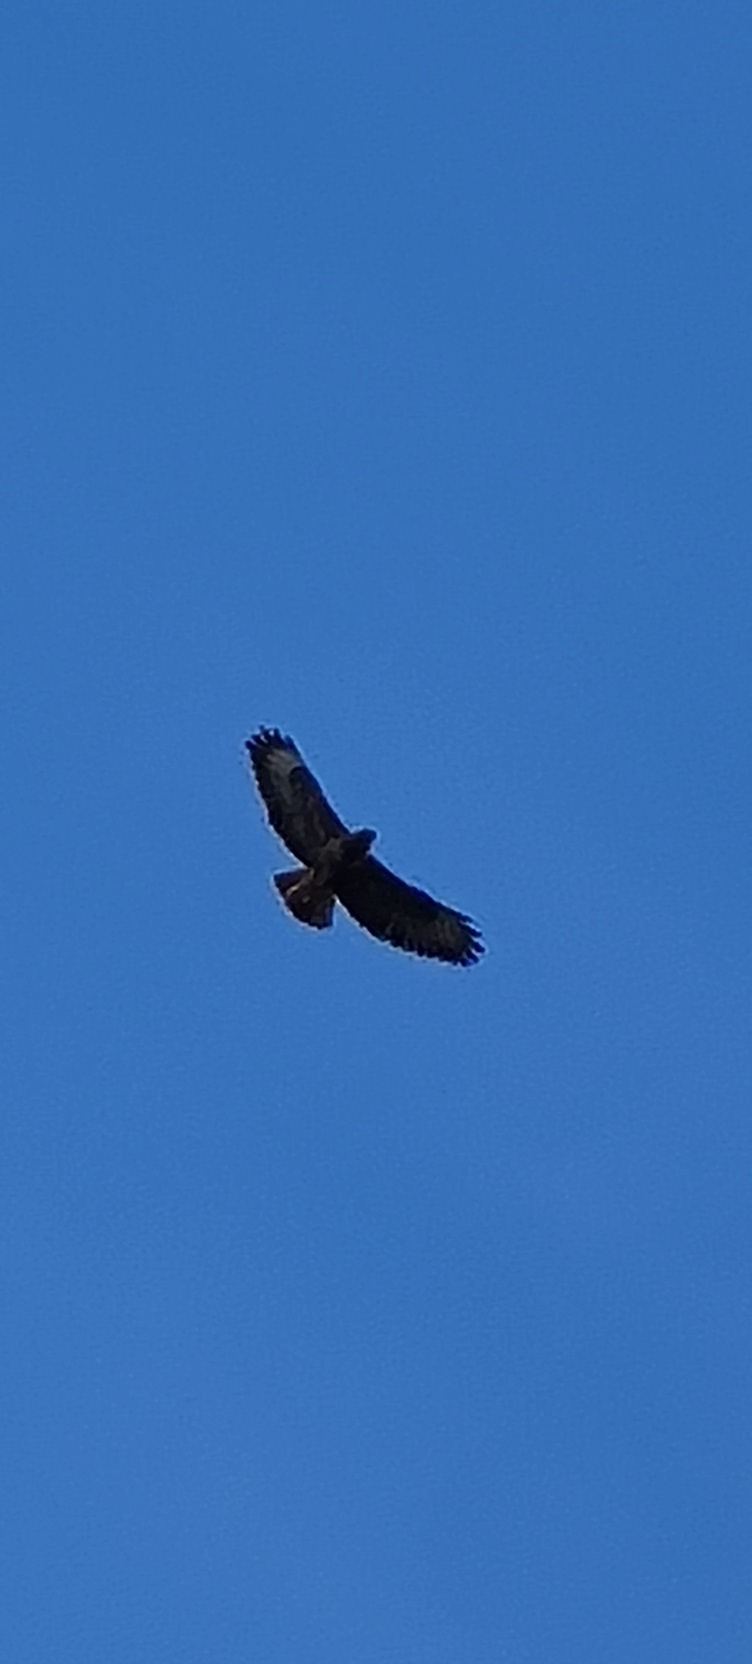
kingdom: Animalia
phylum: Chordata
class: Aves
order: Accipitriformes
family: Accipitridae
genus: Buteo
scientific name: Buteo buteo
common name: Common buzzard
